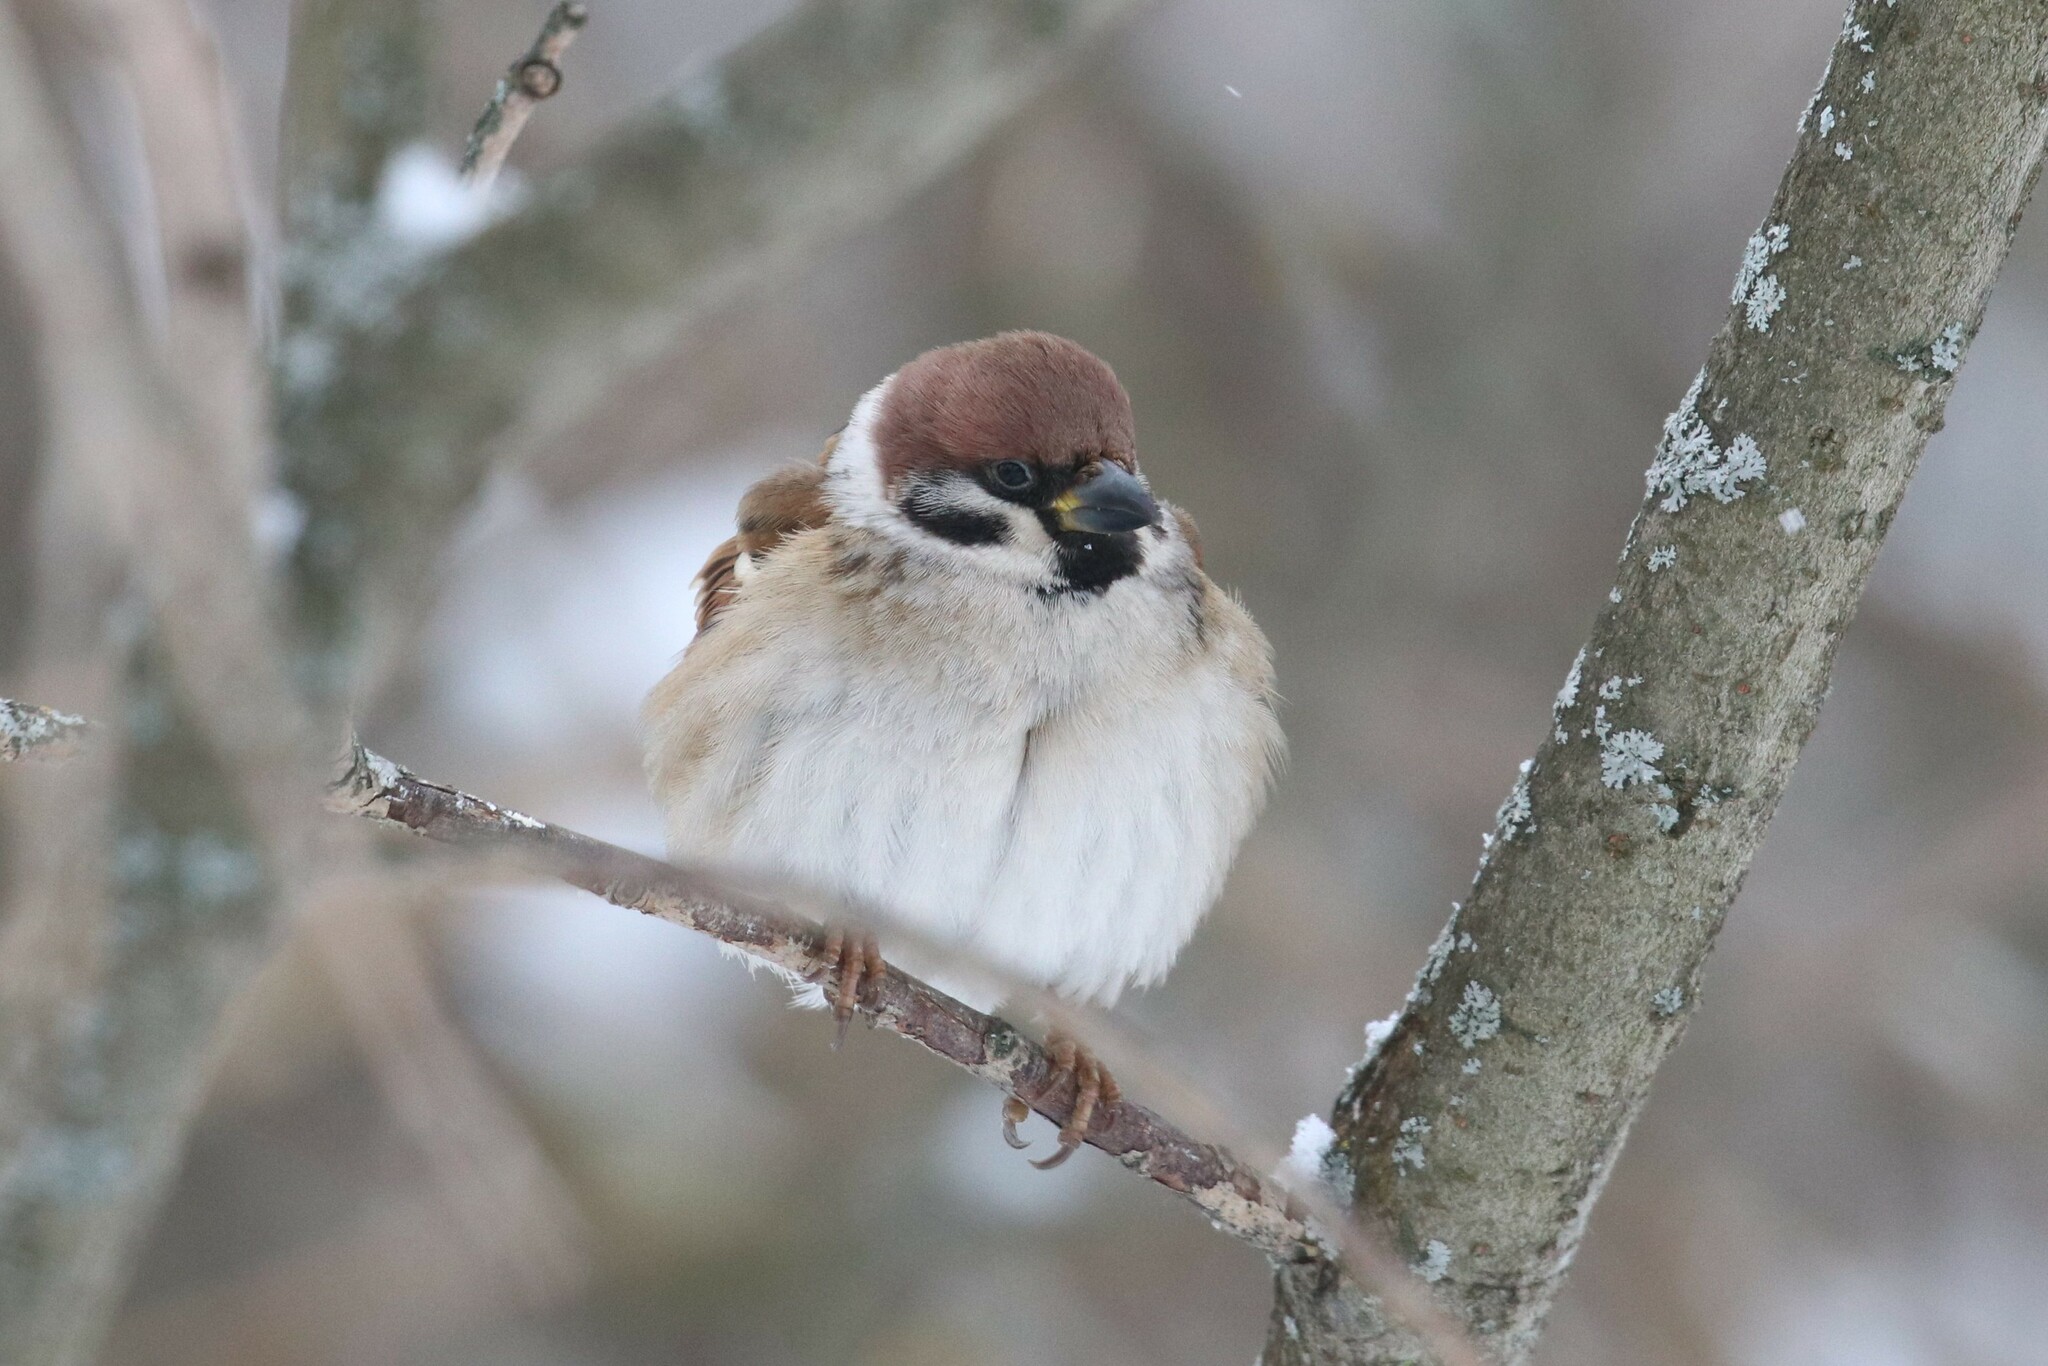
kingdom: Animalia
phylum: Chordata
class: Aves
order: Passeriformes
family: Passeridae
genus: Passer
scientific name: Passer montanus
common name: Eurasian tree sparrow
